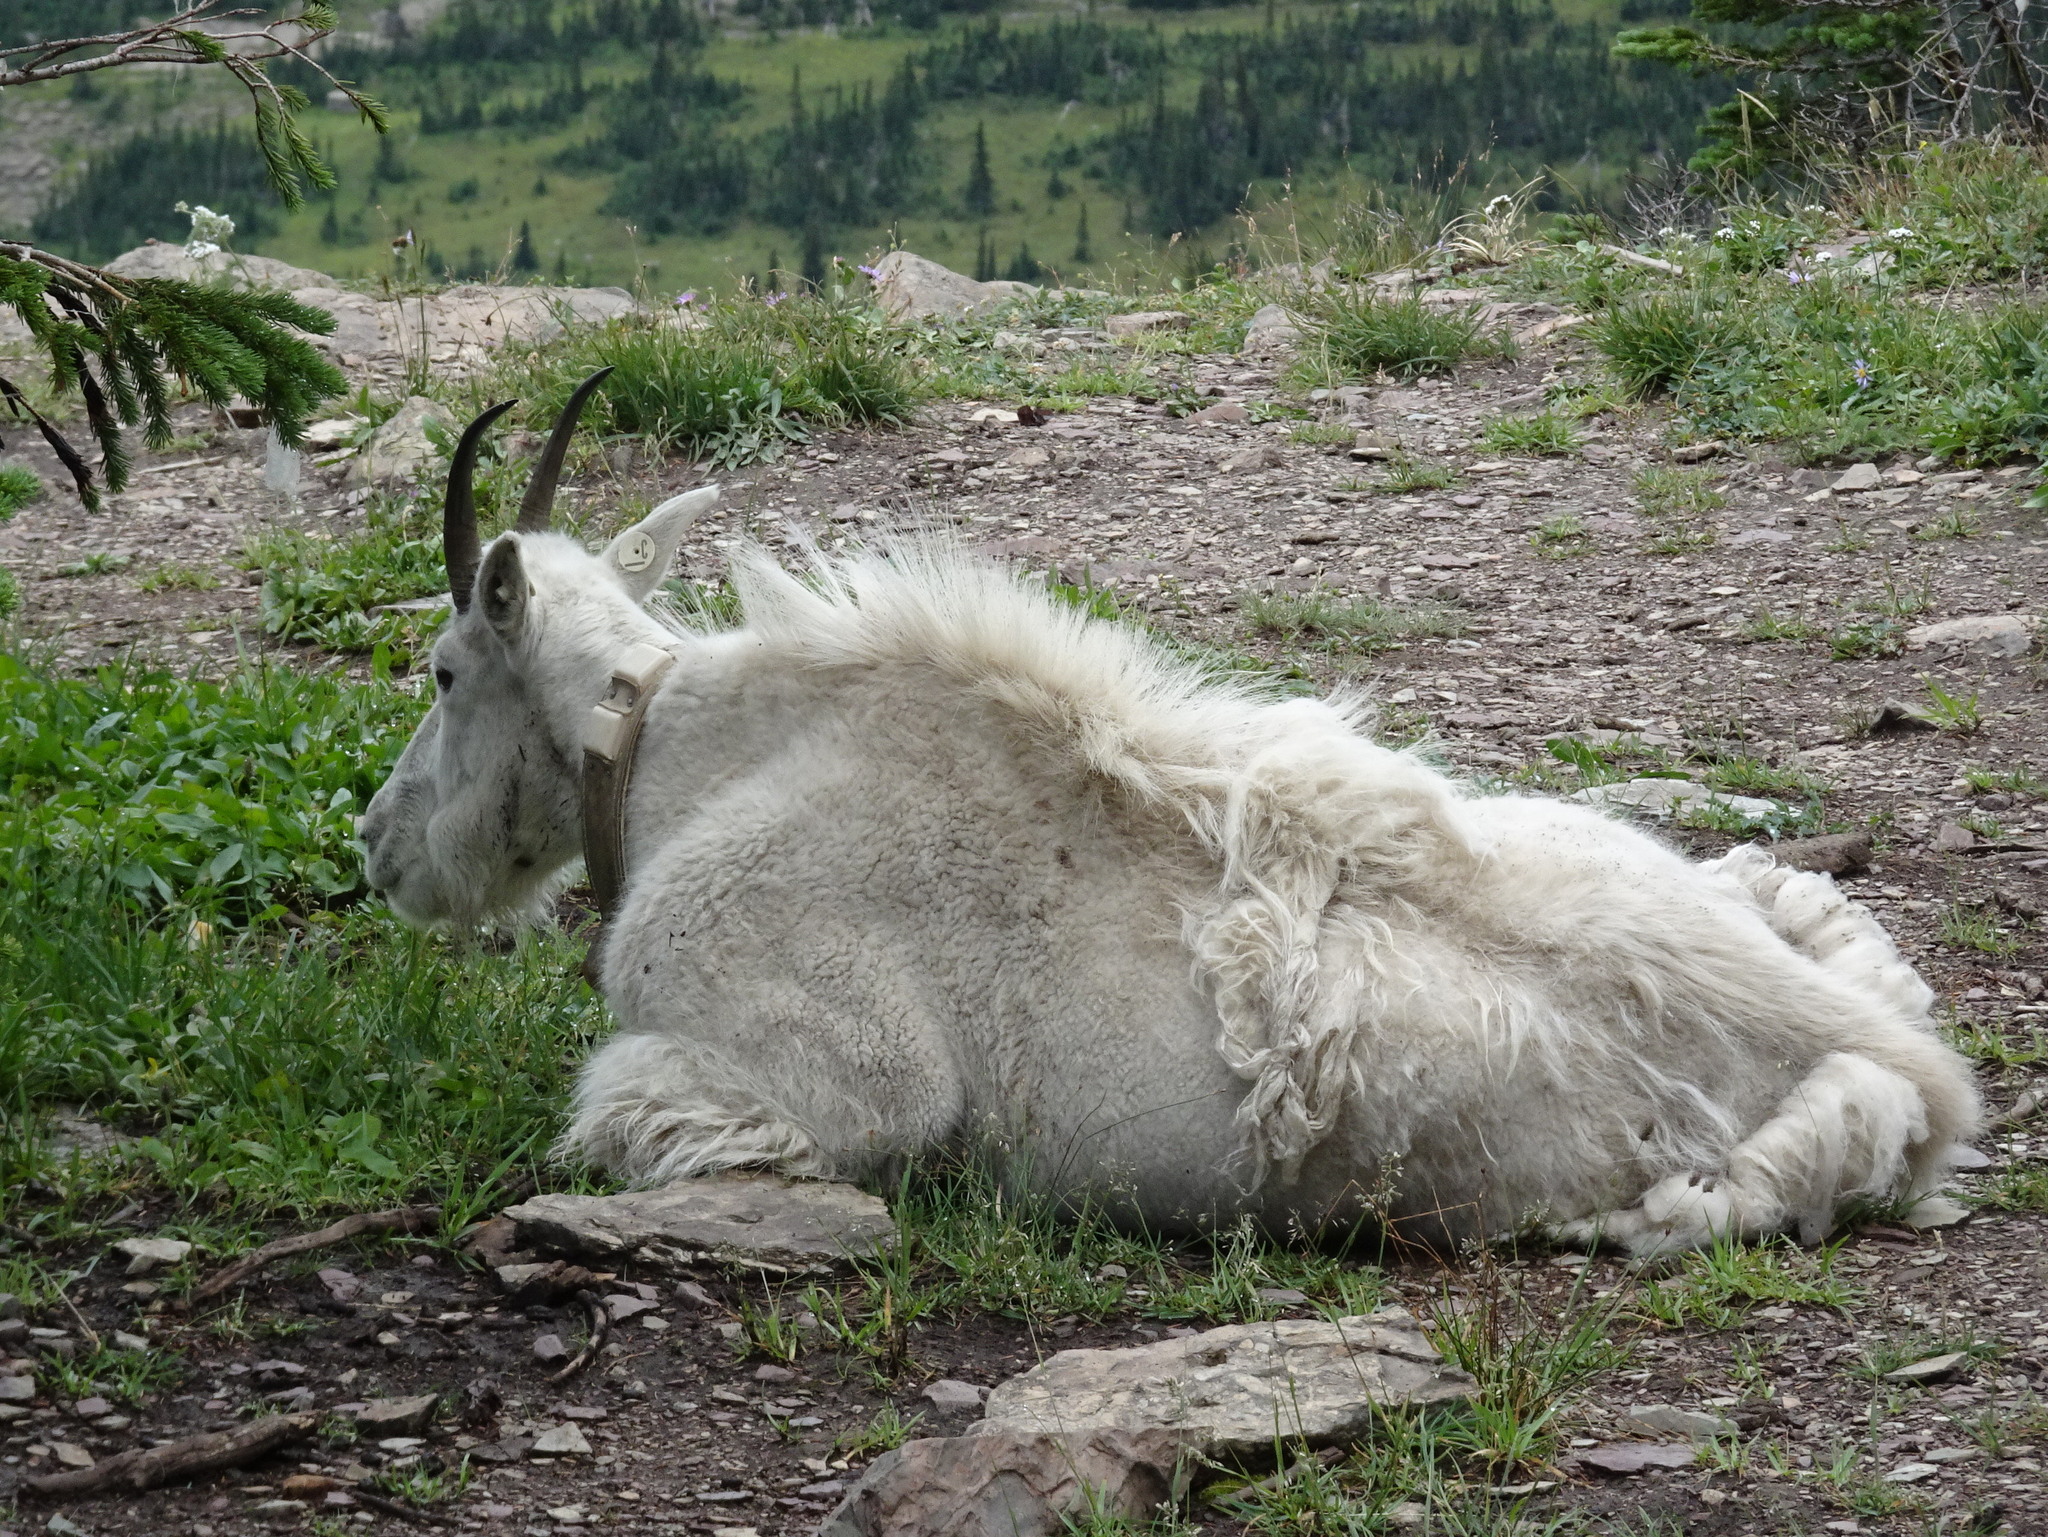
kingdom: Animalia
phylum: Chordata
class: Mammalia
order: Artiodactyla
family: Bovidae
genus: Oreamnos
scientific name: Oreamnos americanus
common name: Mountain goat
